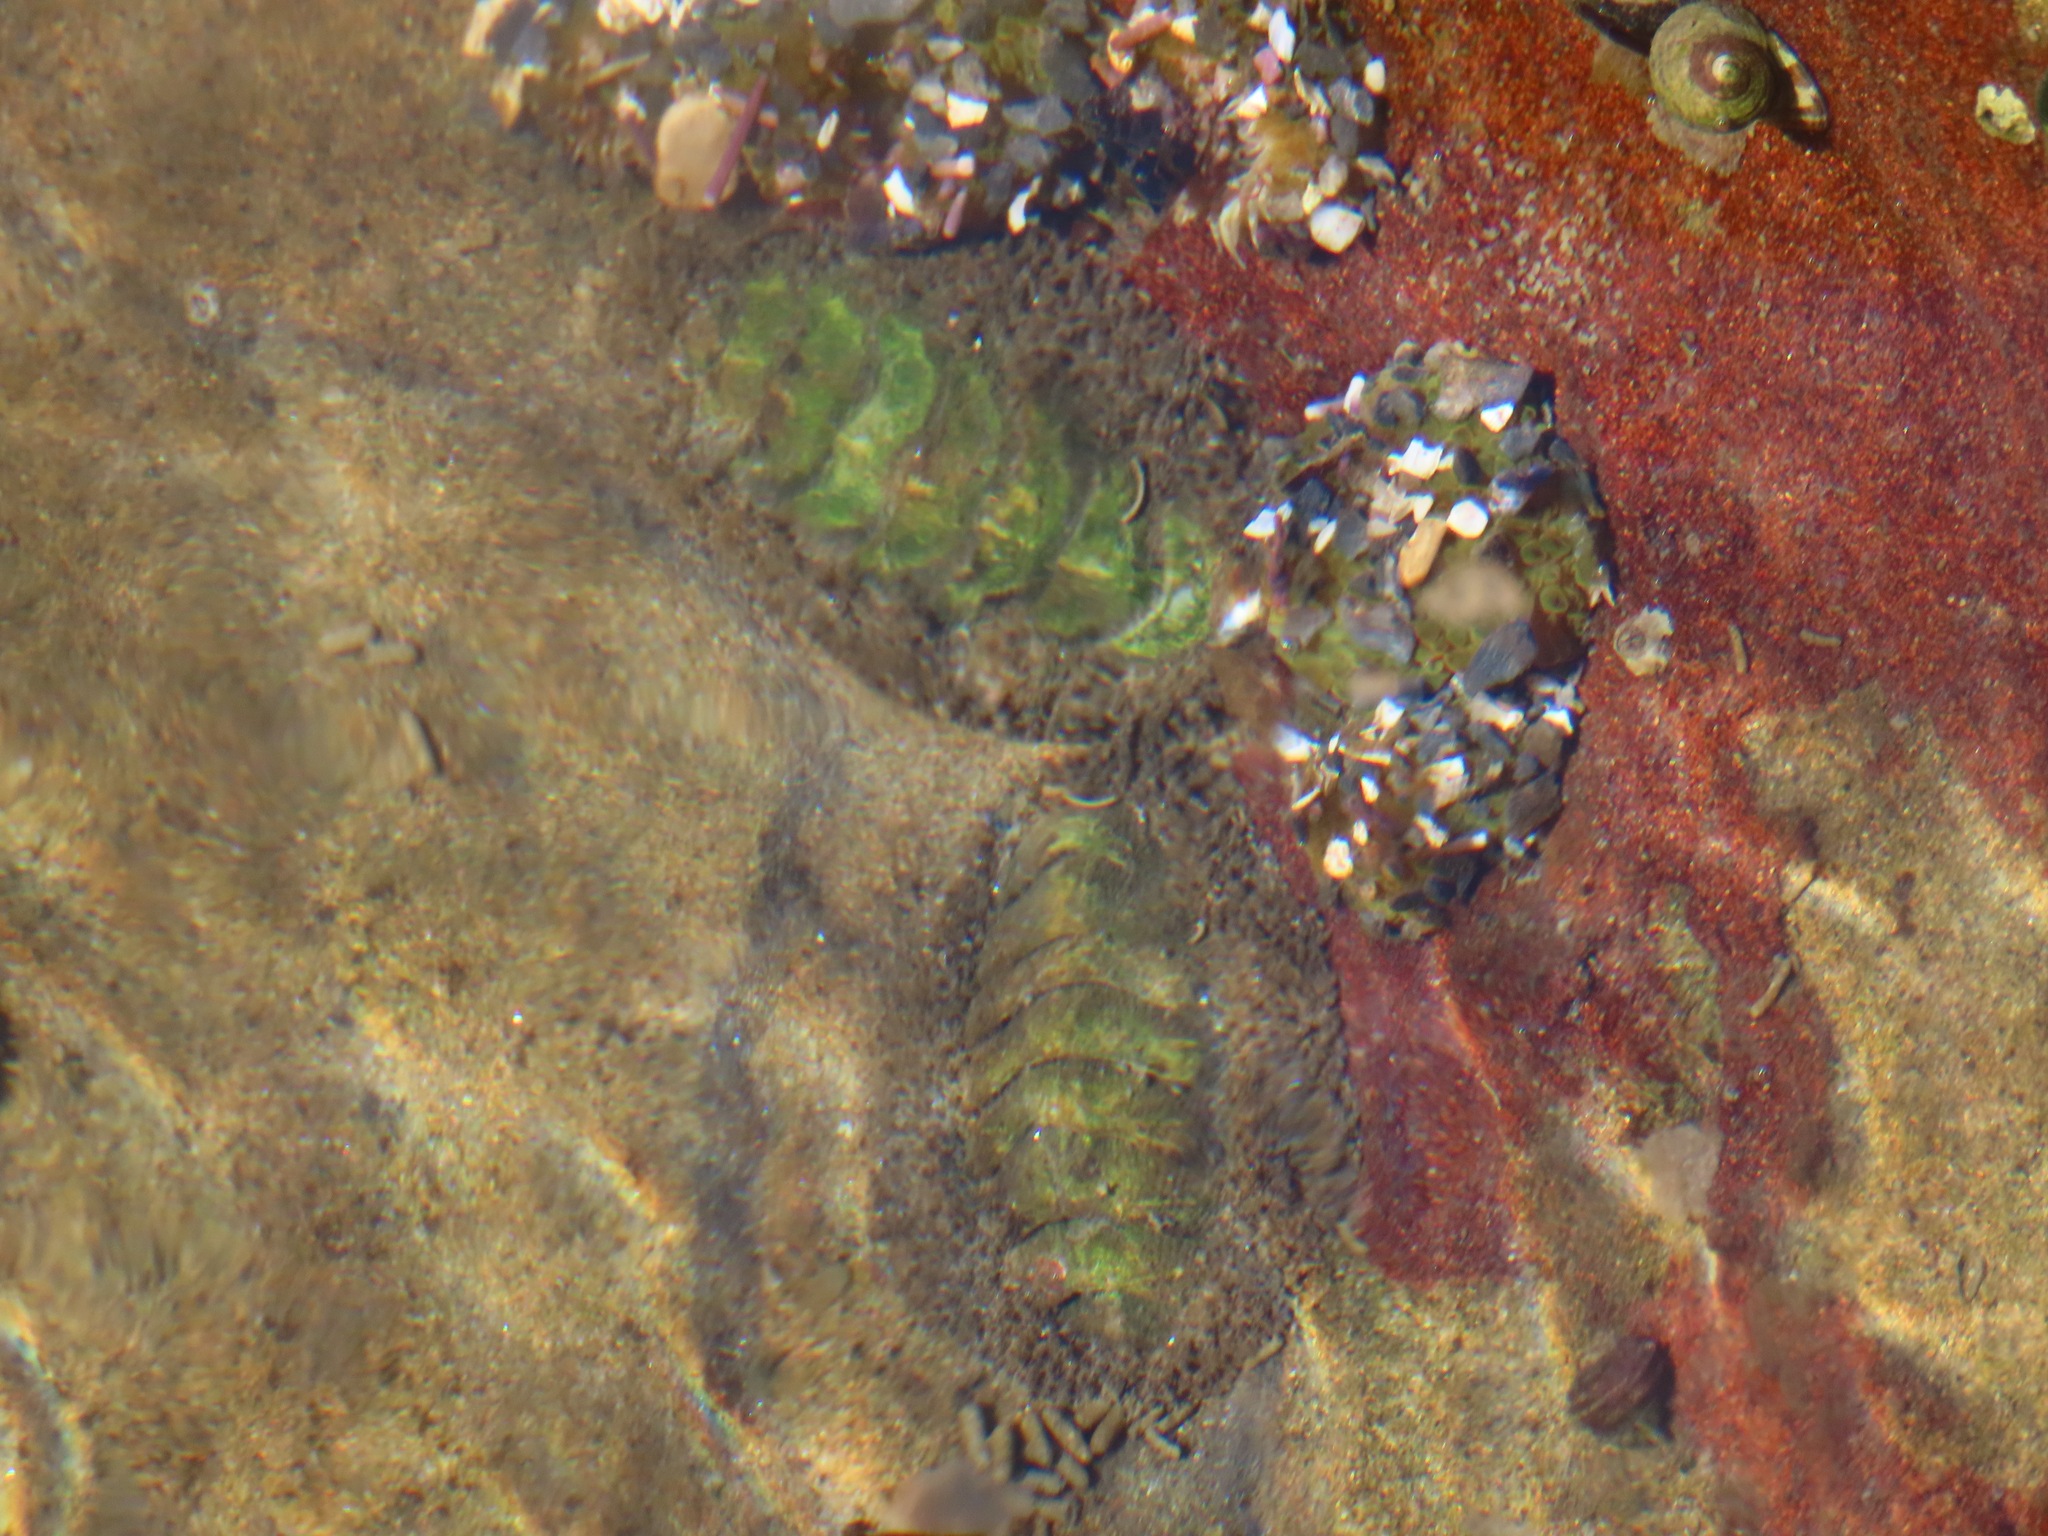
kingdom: Animalia
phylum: Mollusca
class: Polyplacophora
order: Chitonida
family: Mopaliidae
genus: Mopalia
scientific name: Mopalia muscosa
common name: Mossy chiton
